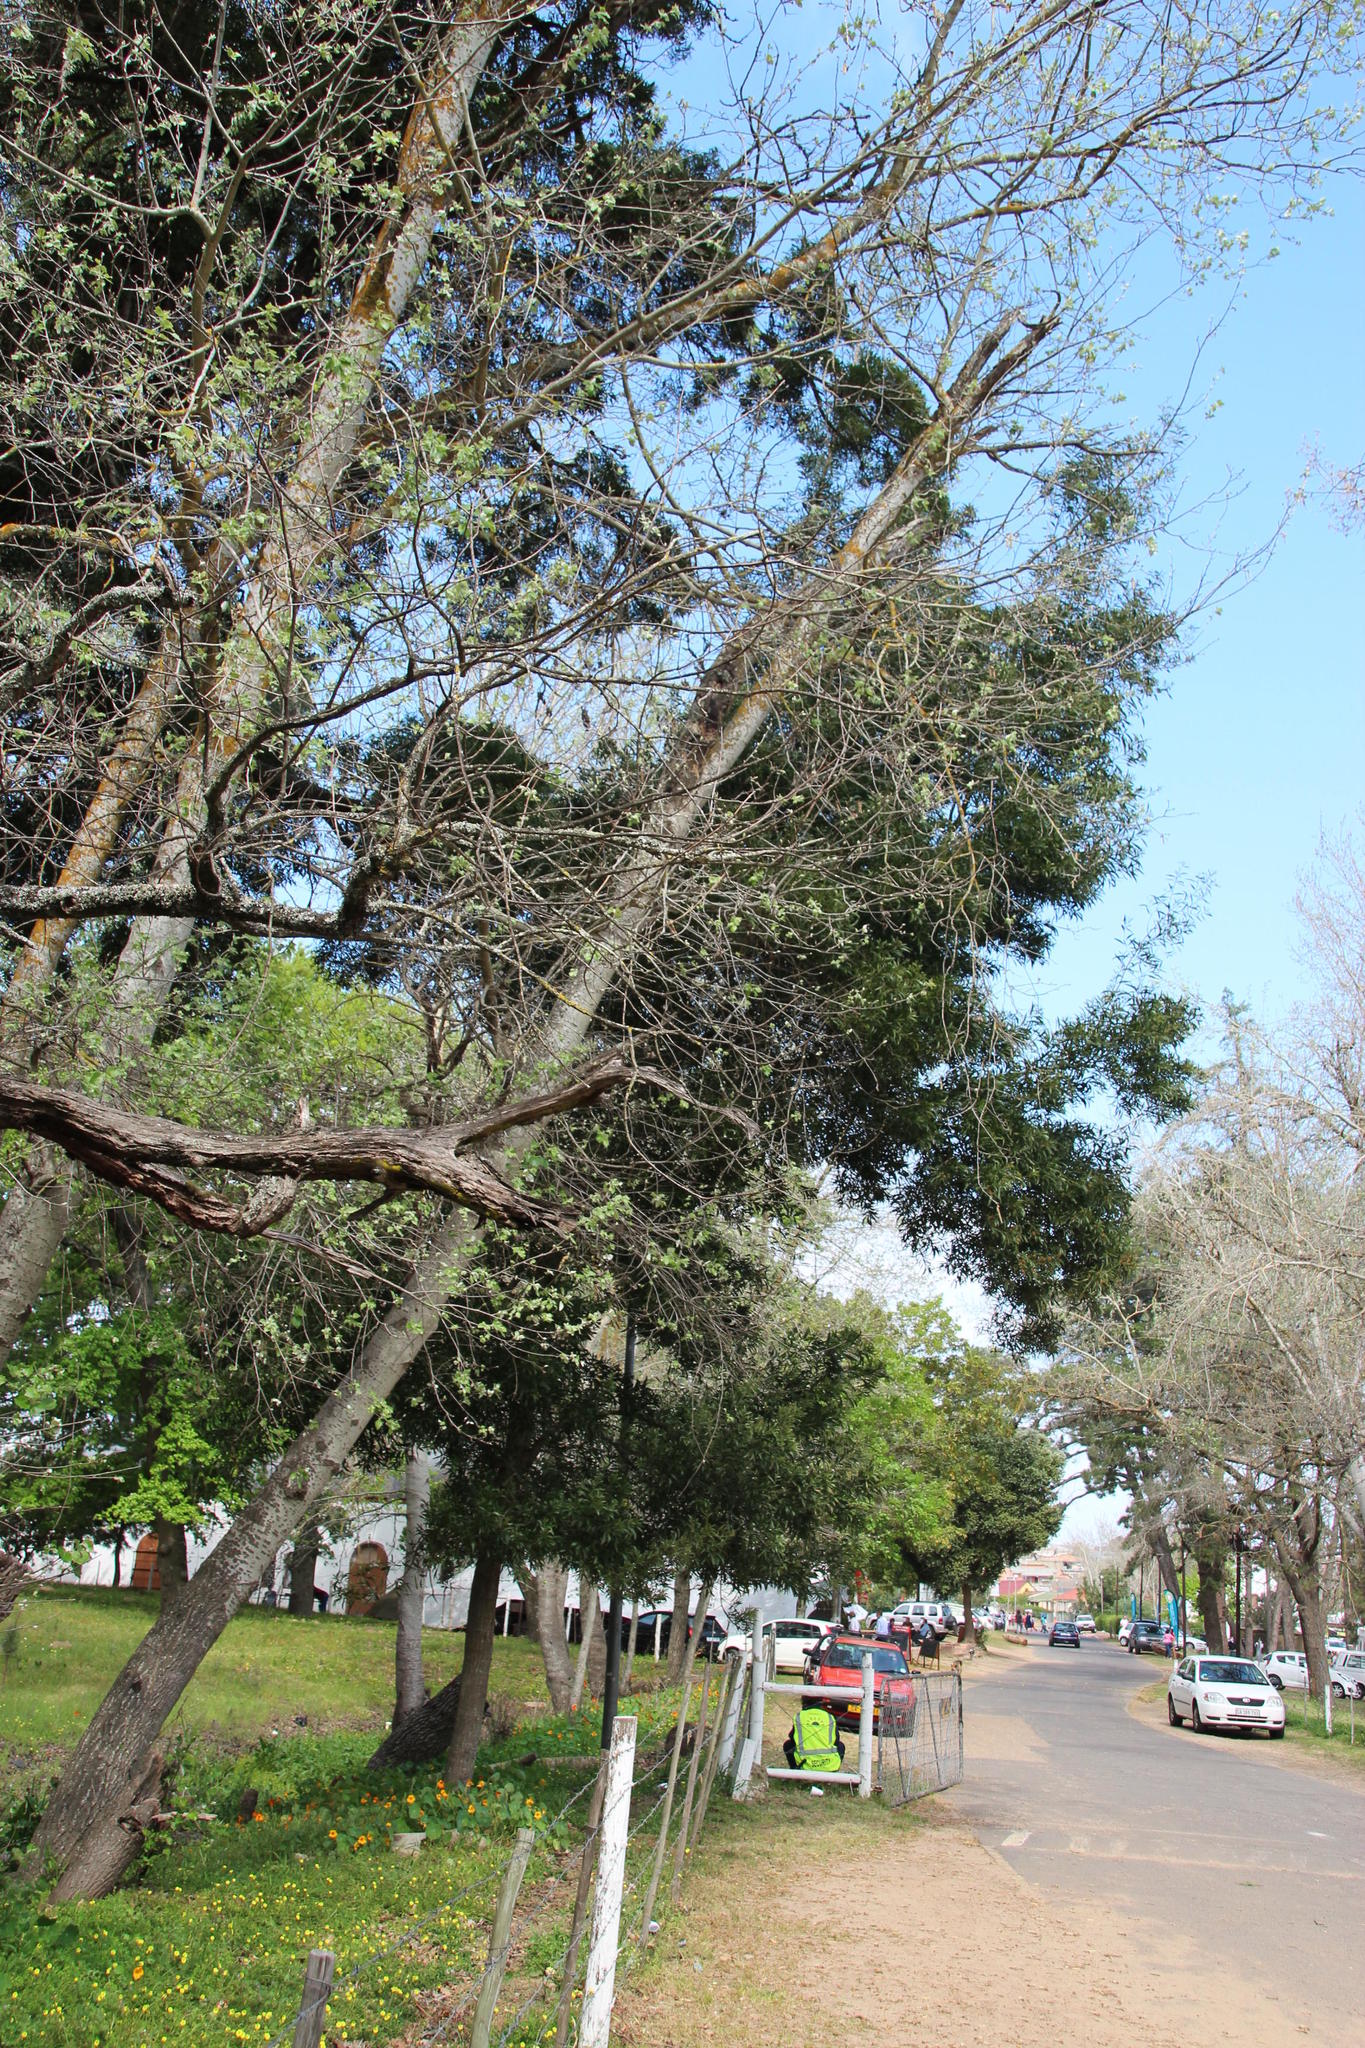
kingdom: Plantae
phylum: Tracheophyta
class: Magnoliopsida
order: Fabales
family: Fabaceae
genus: Acacia
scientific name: Acacia melanoxylon
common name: Blackwood
